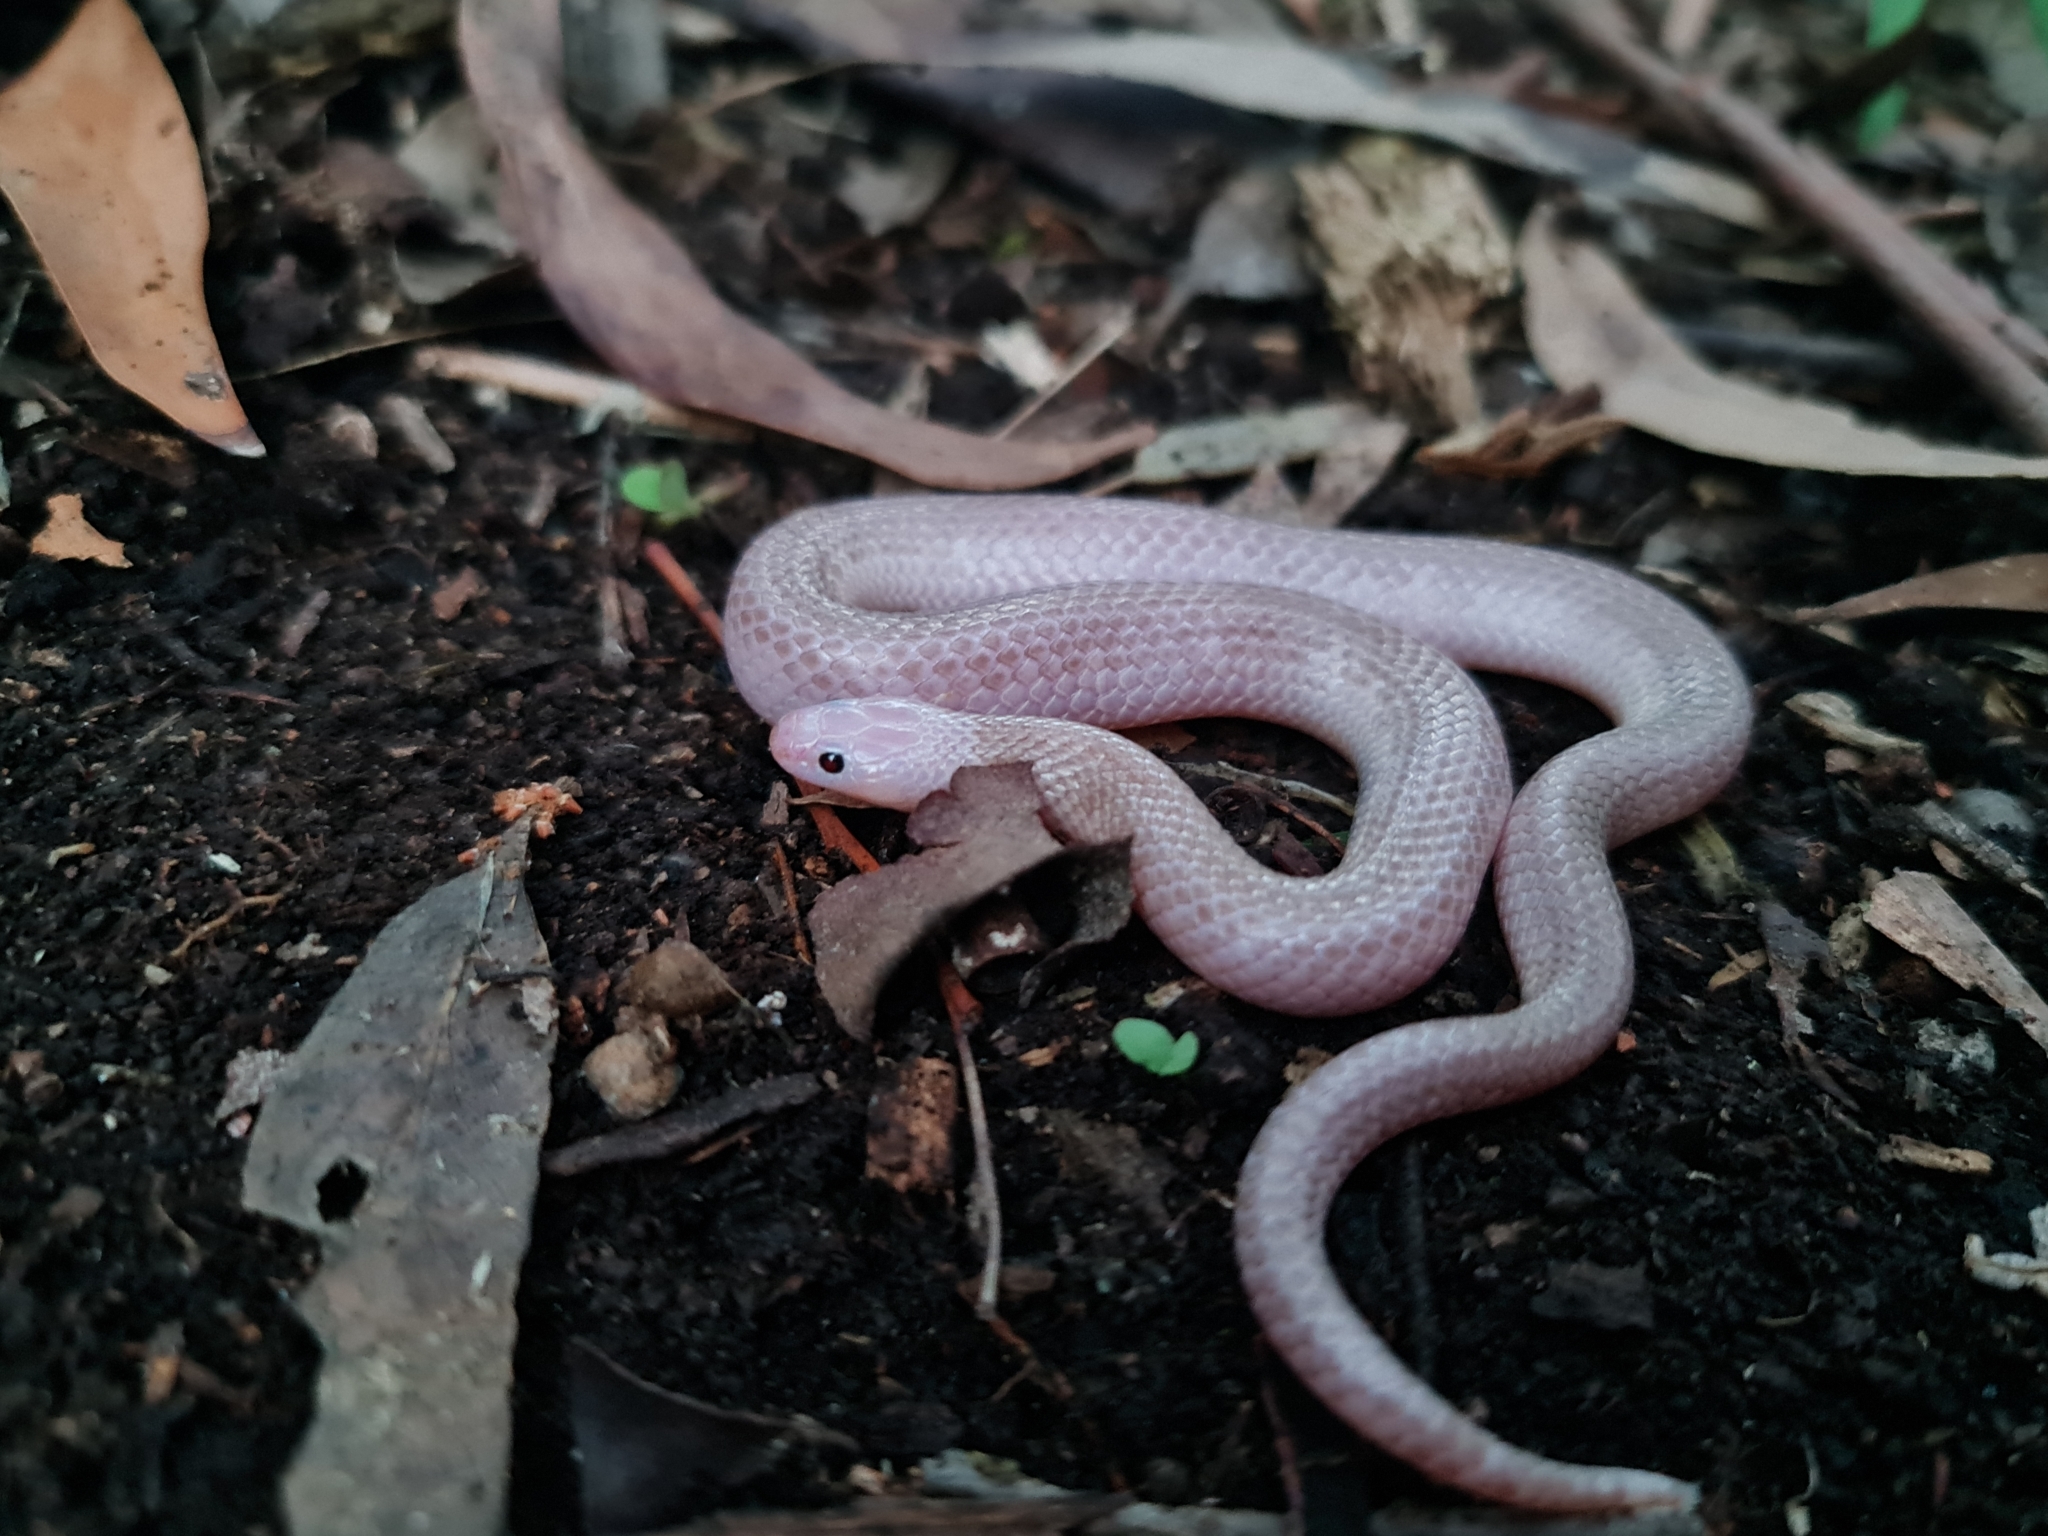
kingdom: Animalia
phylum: Chordata
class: Squamata
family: Elapidae
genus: Suta
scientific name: Suta flagellum
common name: Little whip snake
